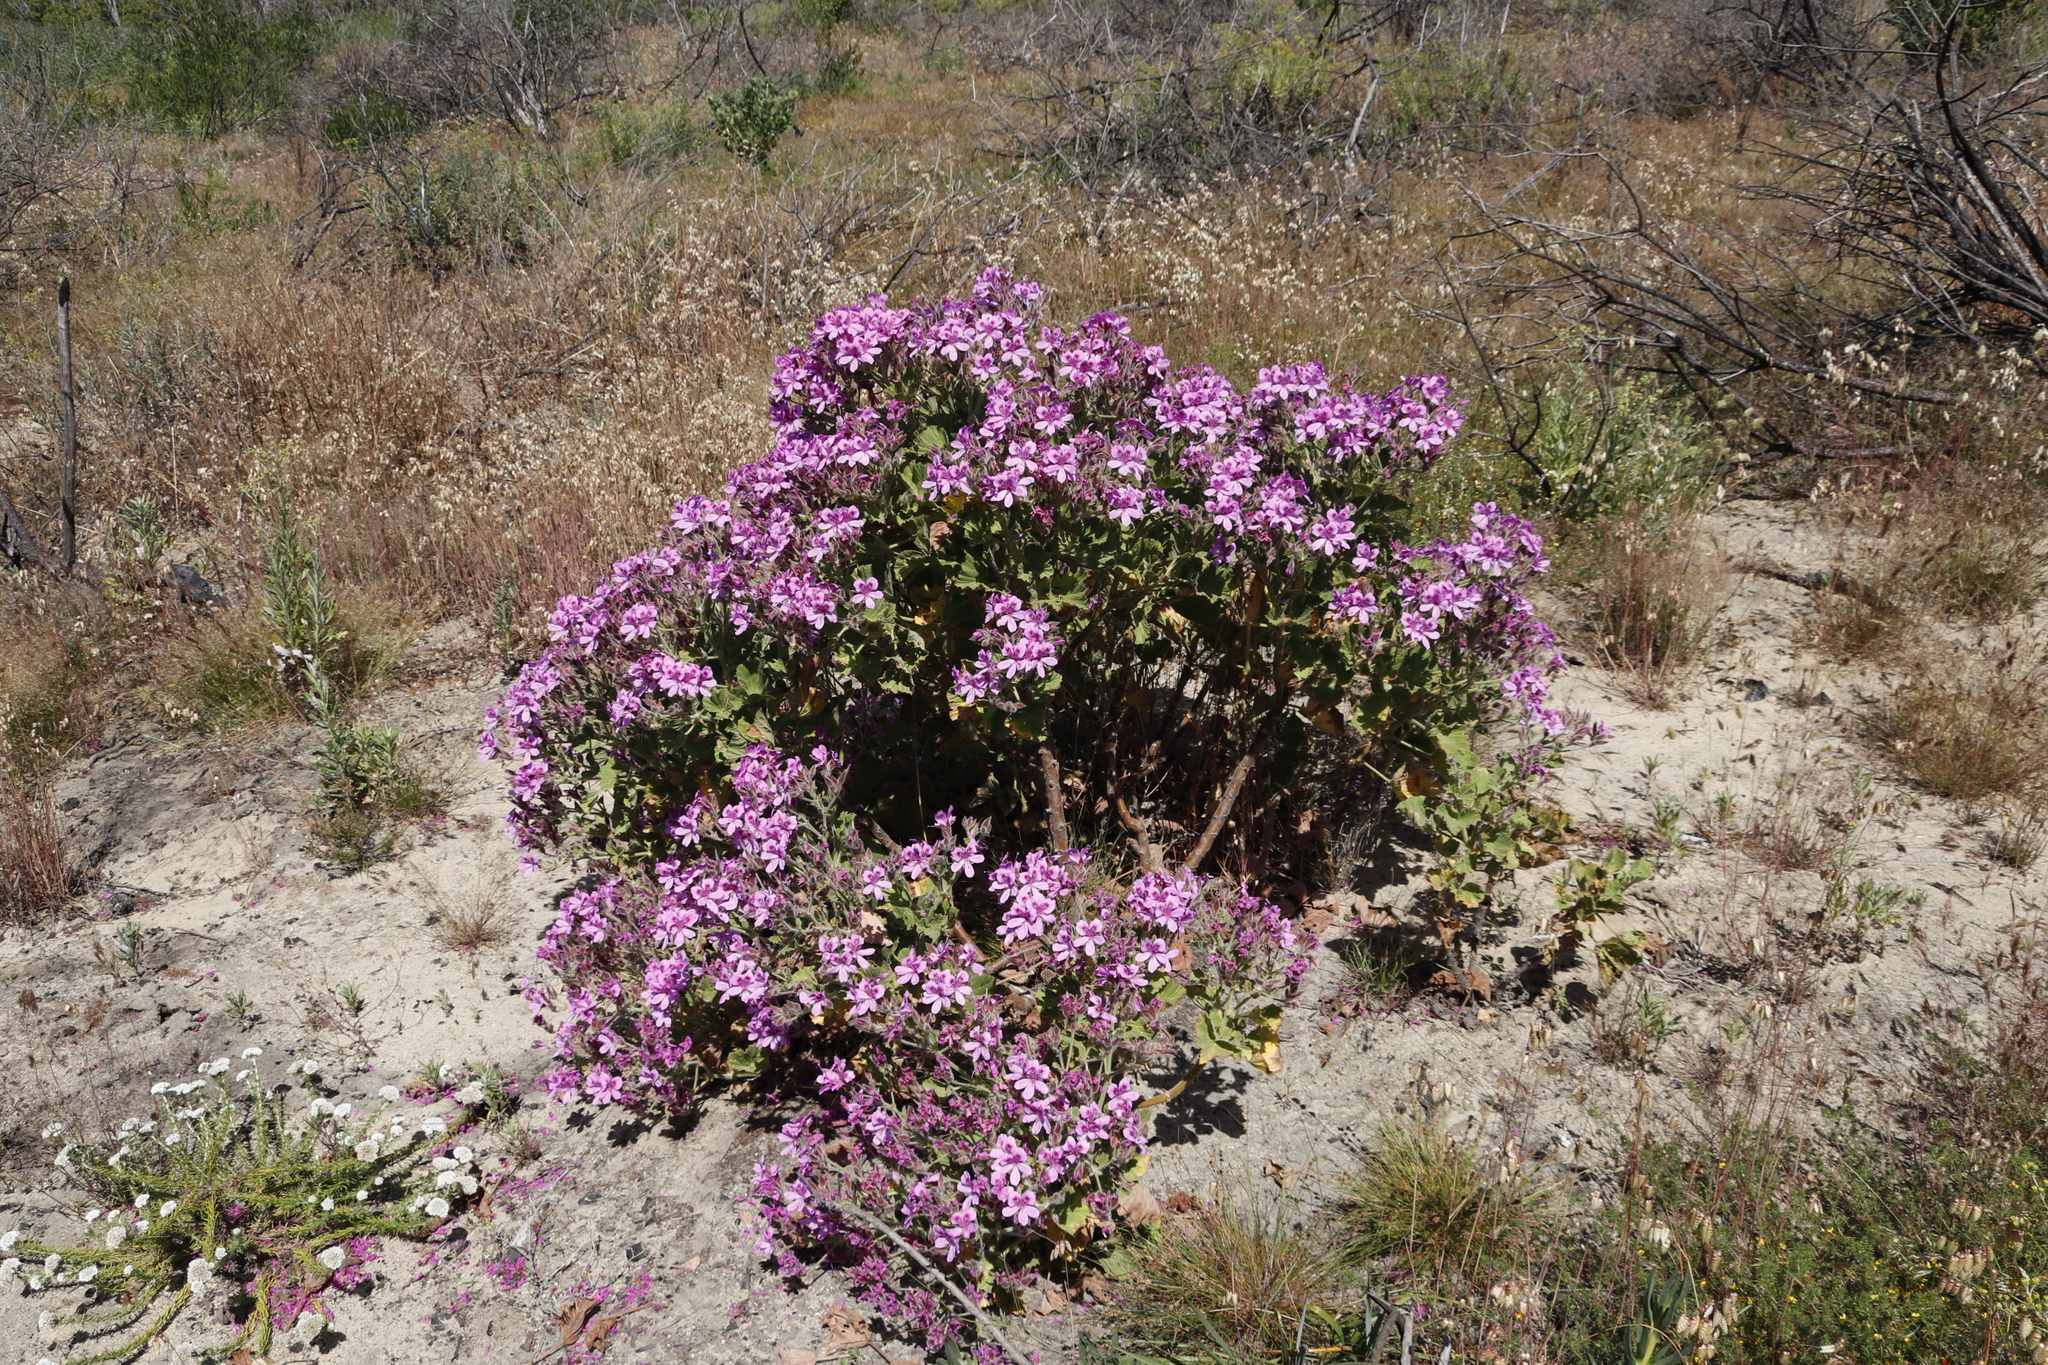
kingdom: Plantae
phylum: Tracheophyta
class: Magnoliopsida
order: Geraniales
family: Geraniaceae
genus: Pelargonium
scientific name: Pelargonium cucullatum
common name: Tree pelargonium
